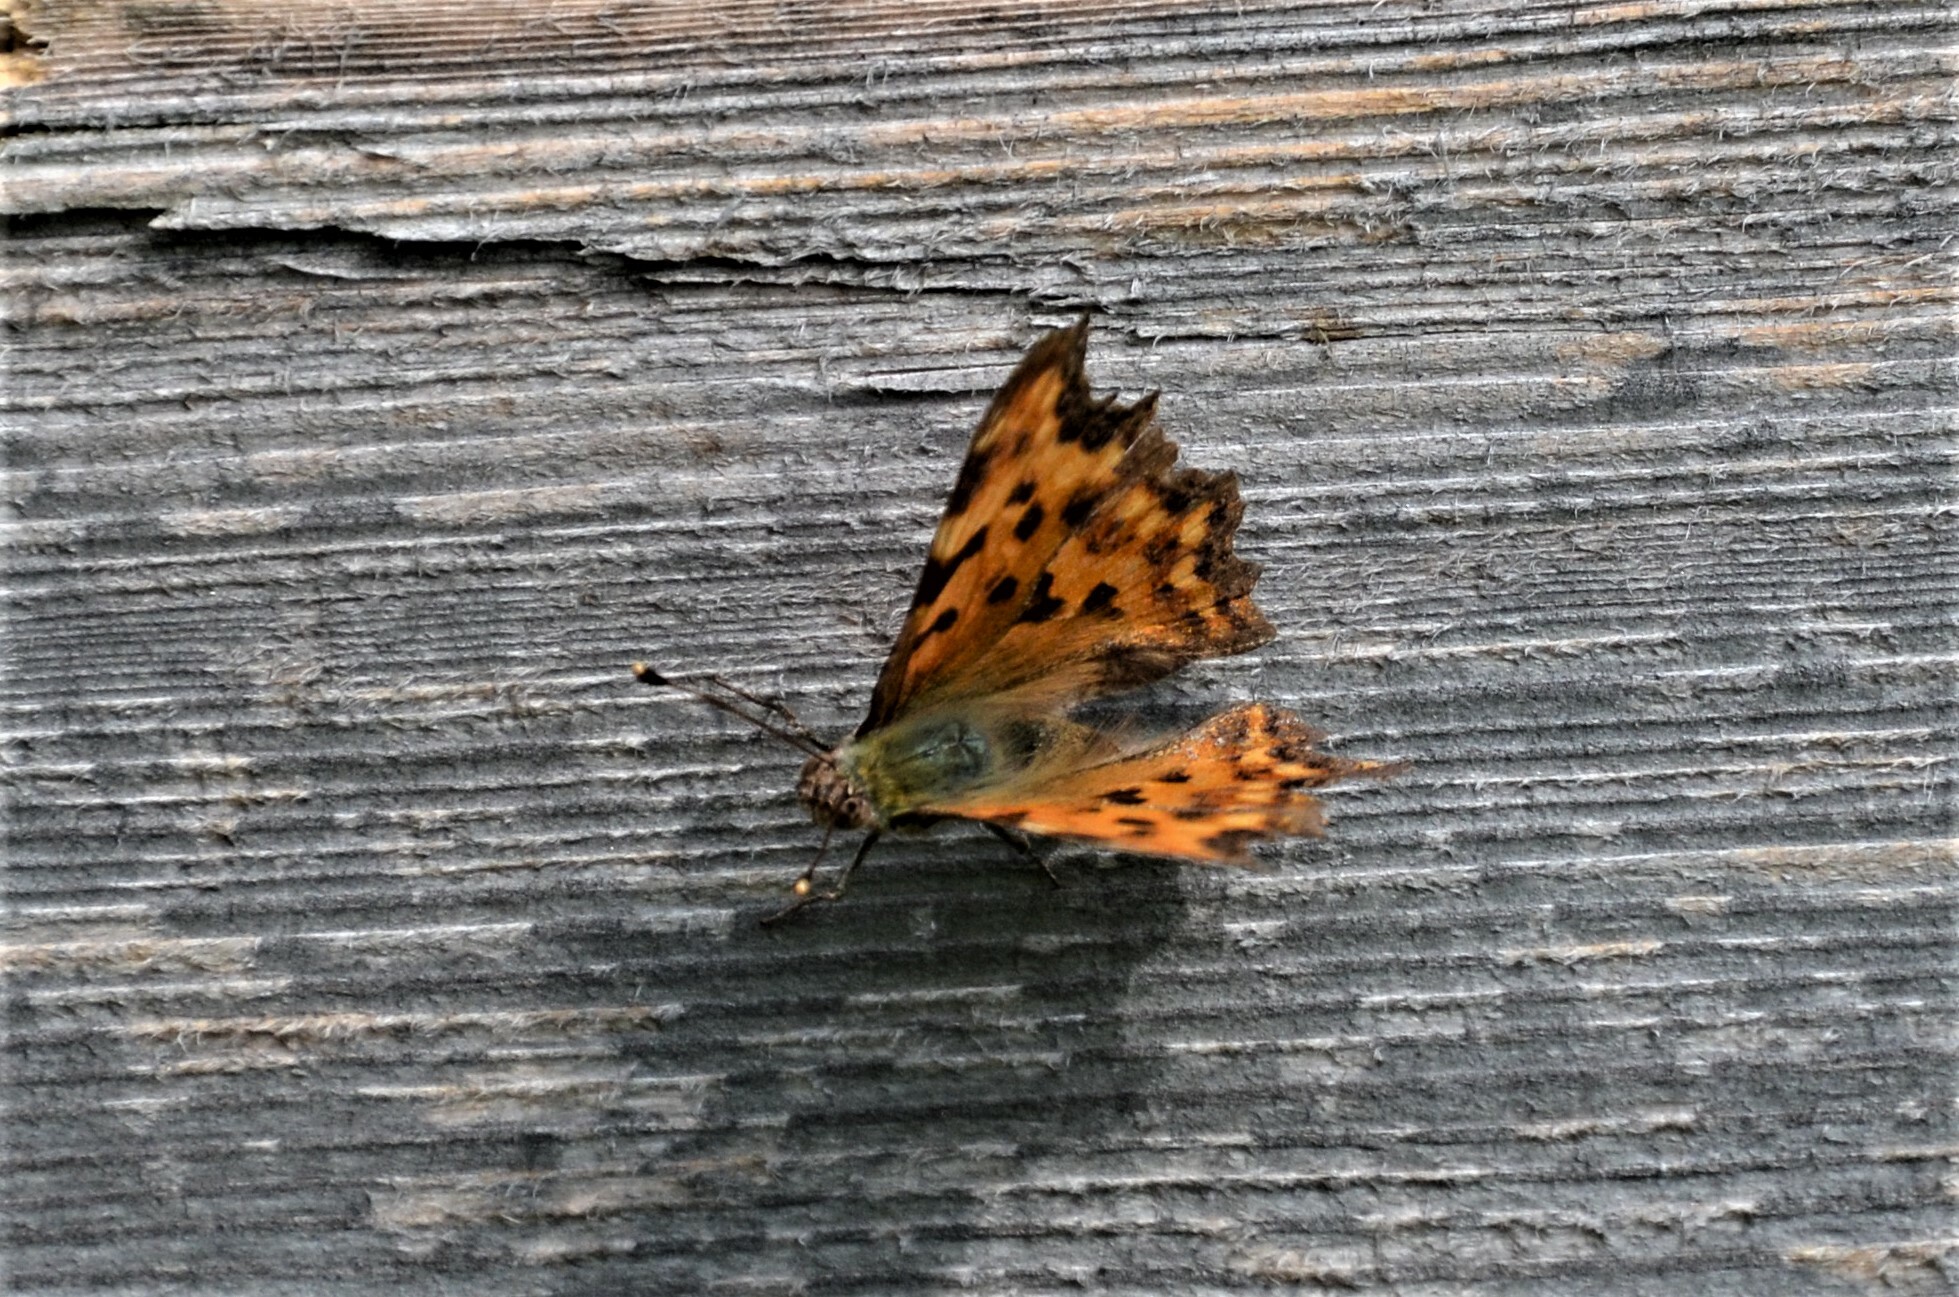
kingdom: Animalia
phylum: Arthropoda
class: Insecta
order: Lepidoptera
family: Nymphalidae
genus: Polygonia
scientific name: Polygonia c-album
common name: Comma
